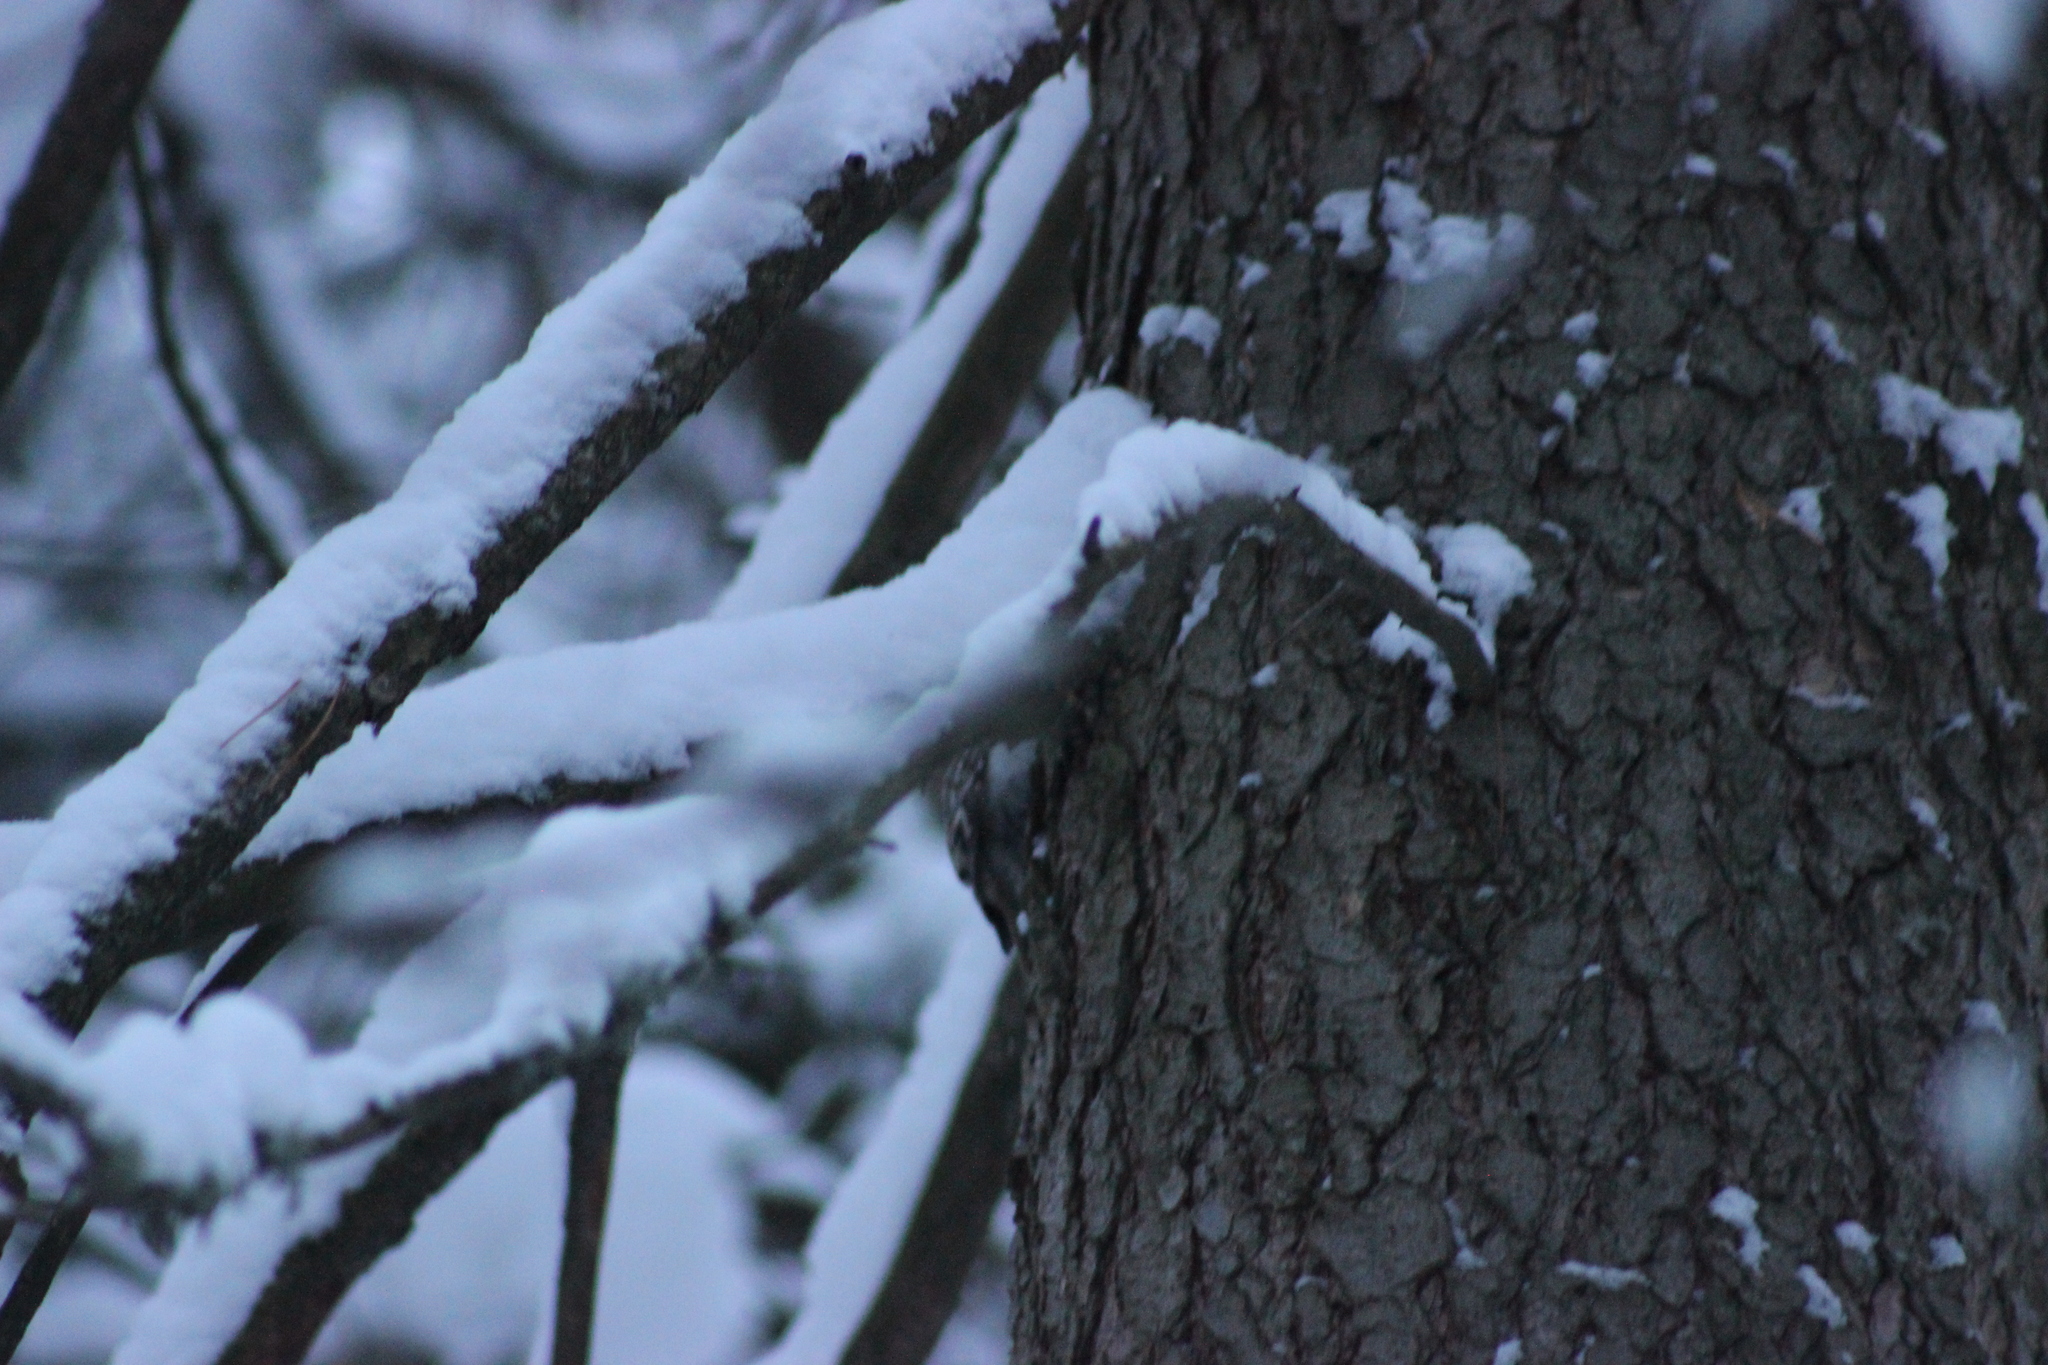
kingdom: Animalia
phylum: Chordata
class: Aves
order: Passeriformes
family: Certhiidae
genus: Certhia
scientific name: Certhia familiaris
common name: Eurasian treecreeper
